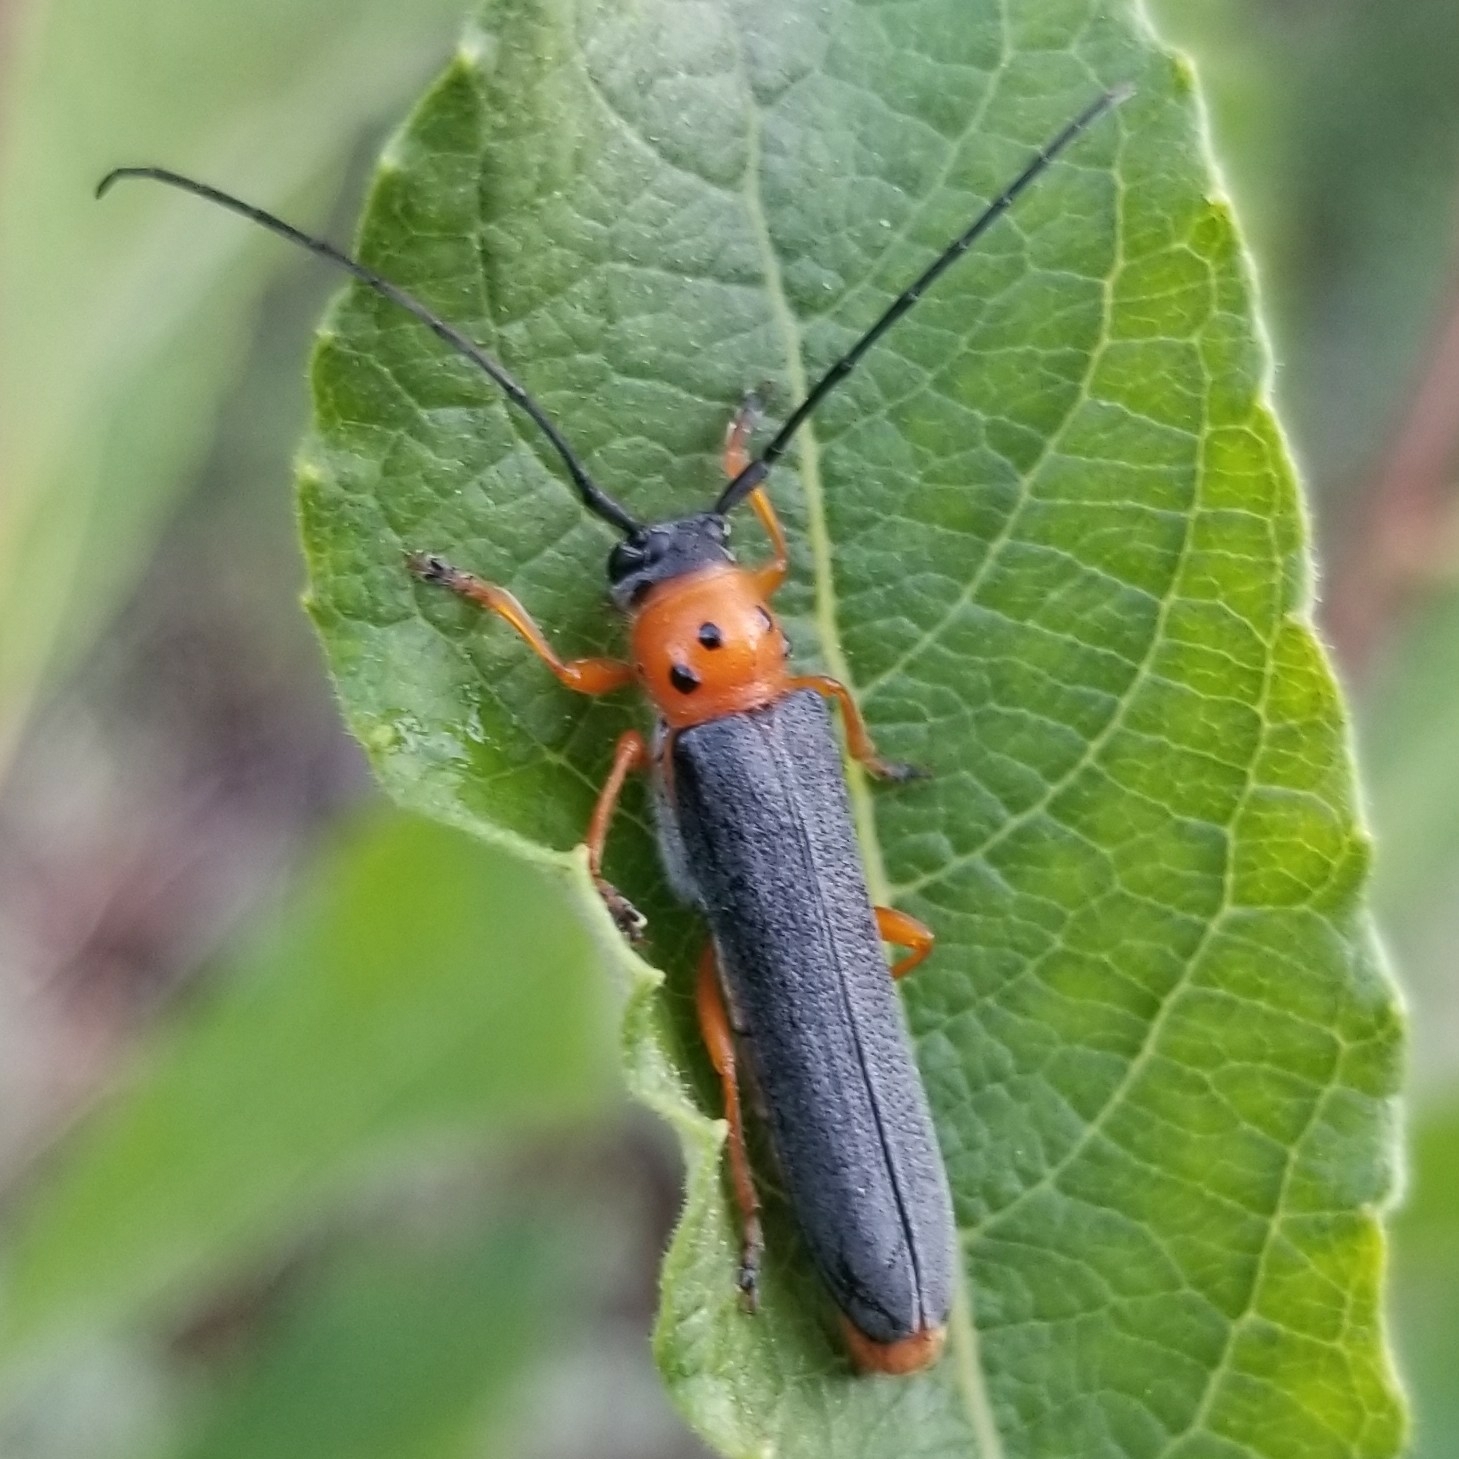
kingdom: Animalia
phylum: Arthropoda
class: Insecta
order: Coleoptera
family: Cerambycidae
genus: Oberea
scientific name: Oberea quadricallosa
